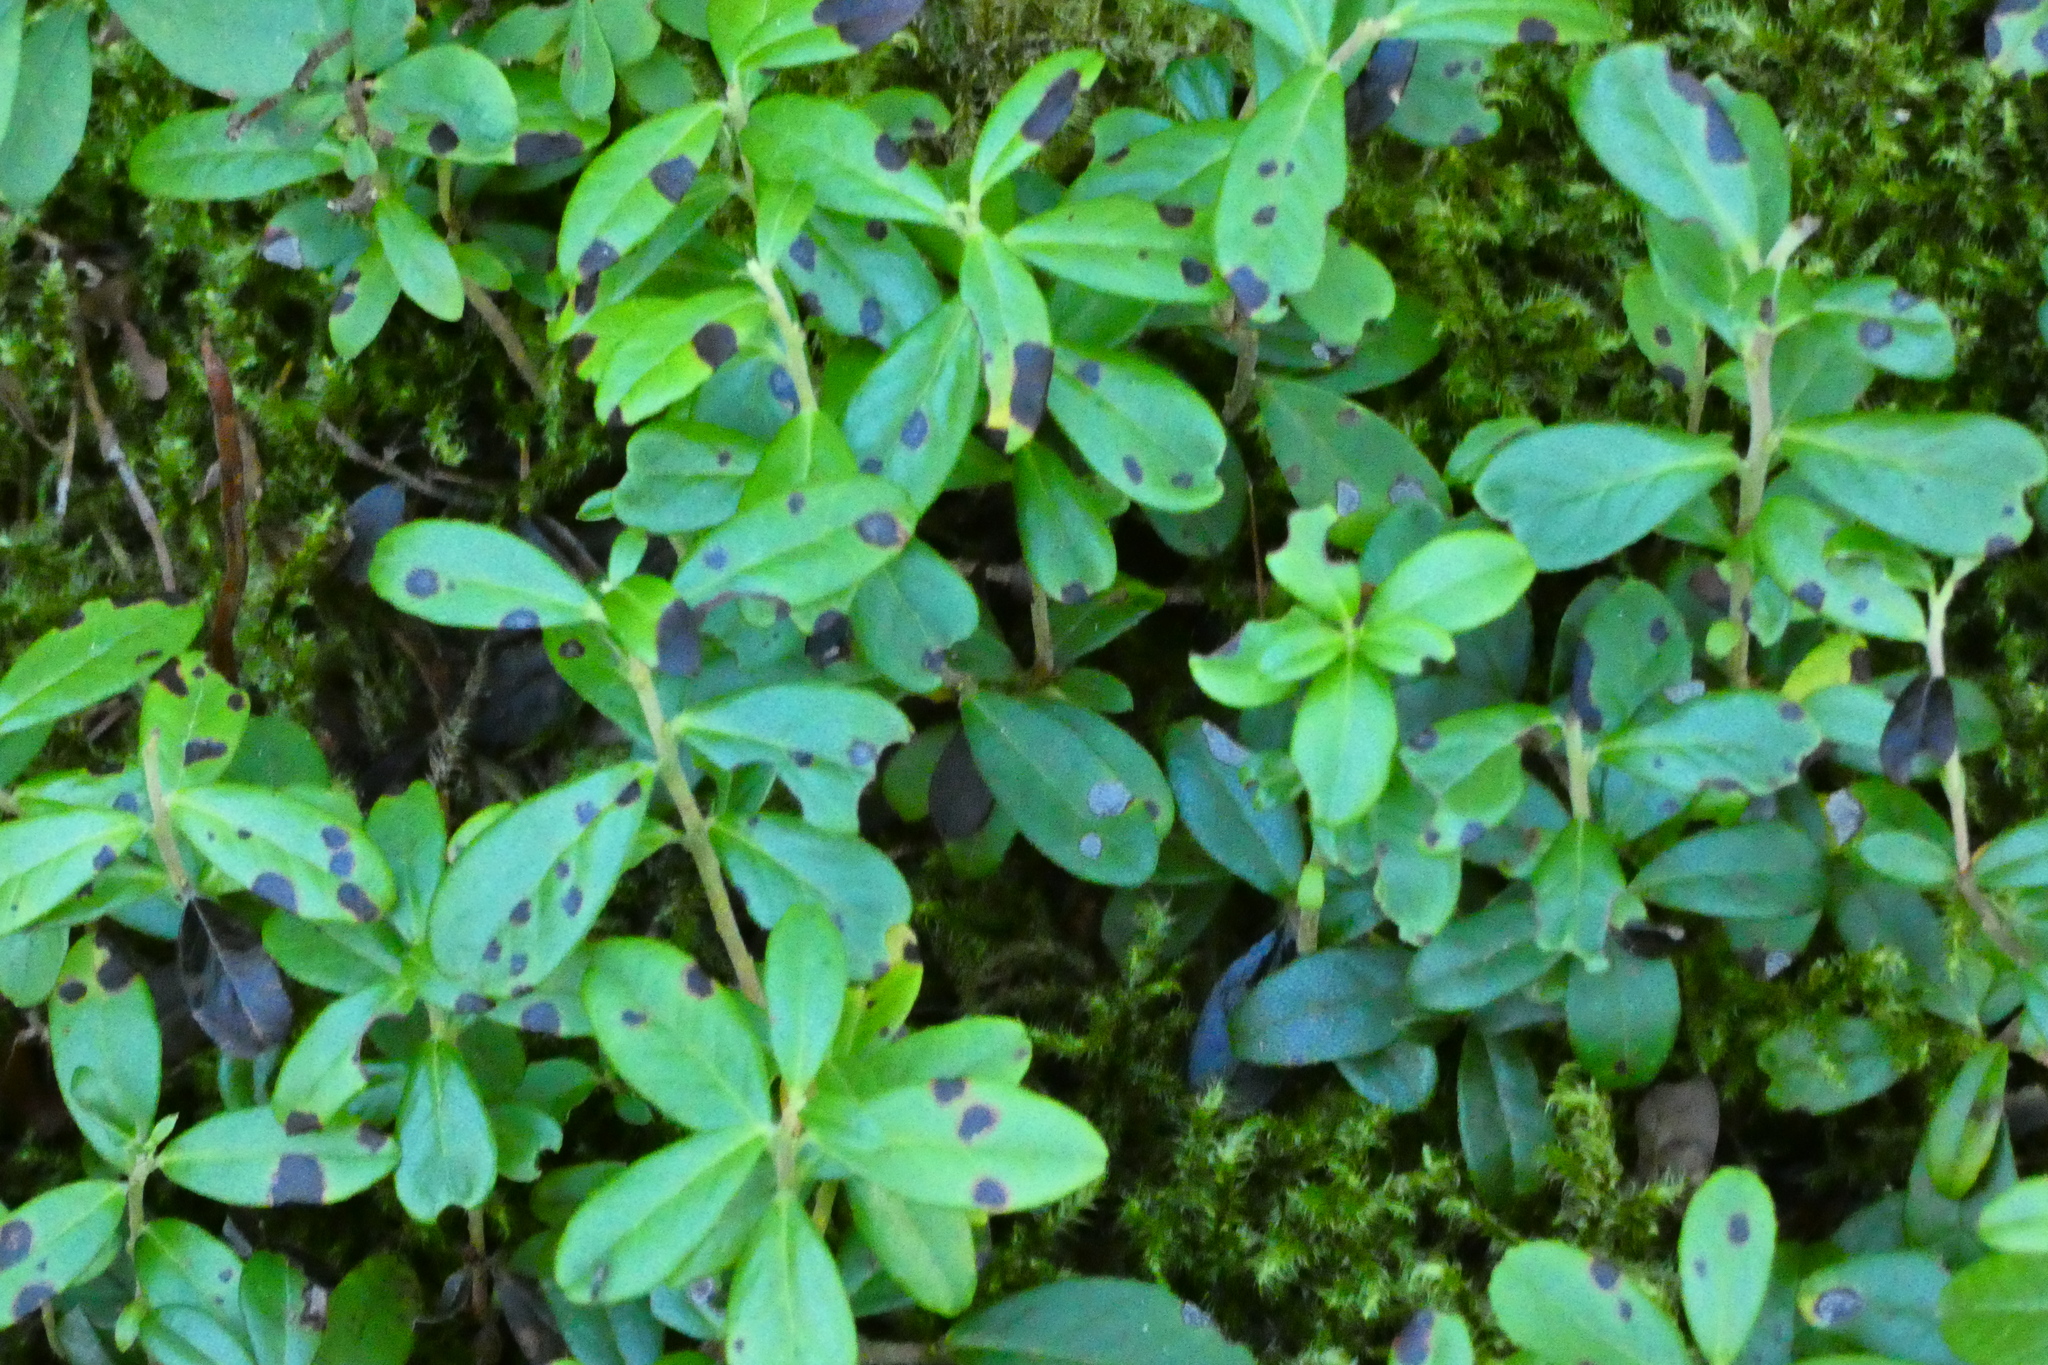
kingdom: Plantae
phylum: Tracheophyta
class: Magnoliopsida
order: Ericales
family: Ericaceae
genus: Vaccinium
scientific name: Vaccinium vitis-idaea
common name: Cowberry
